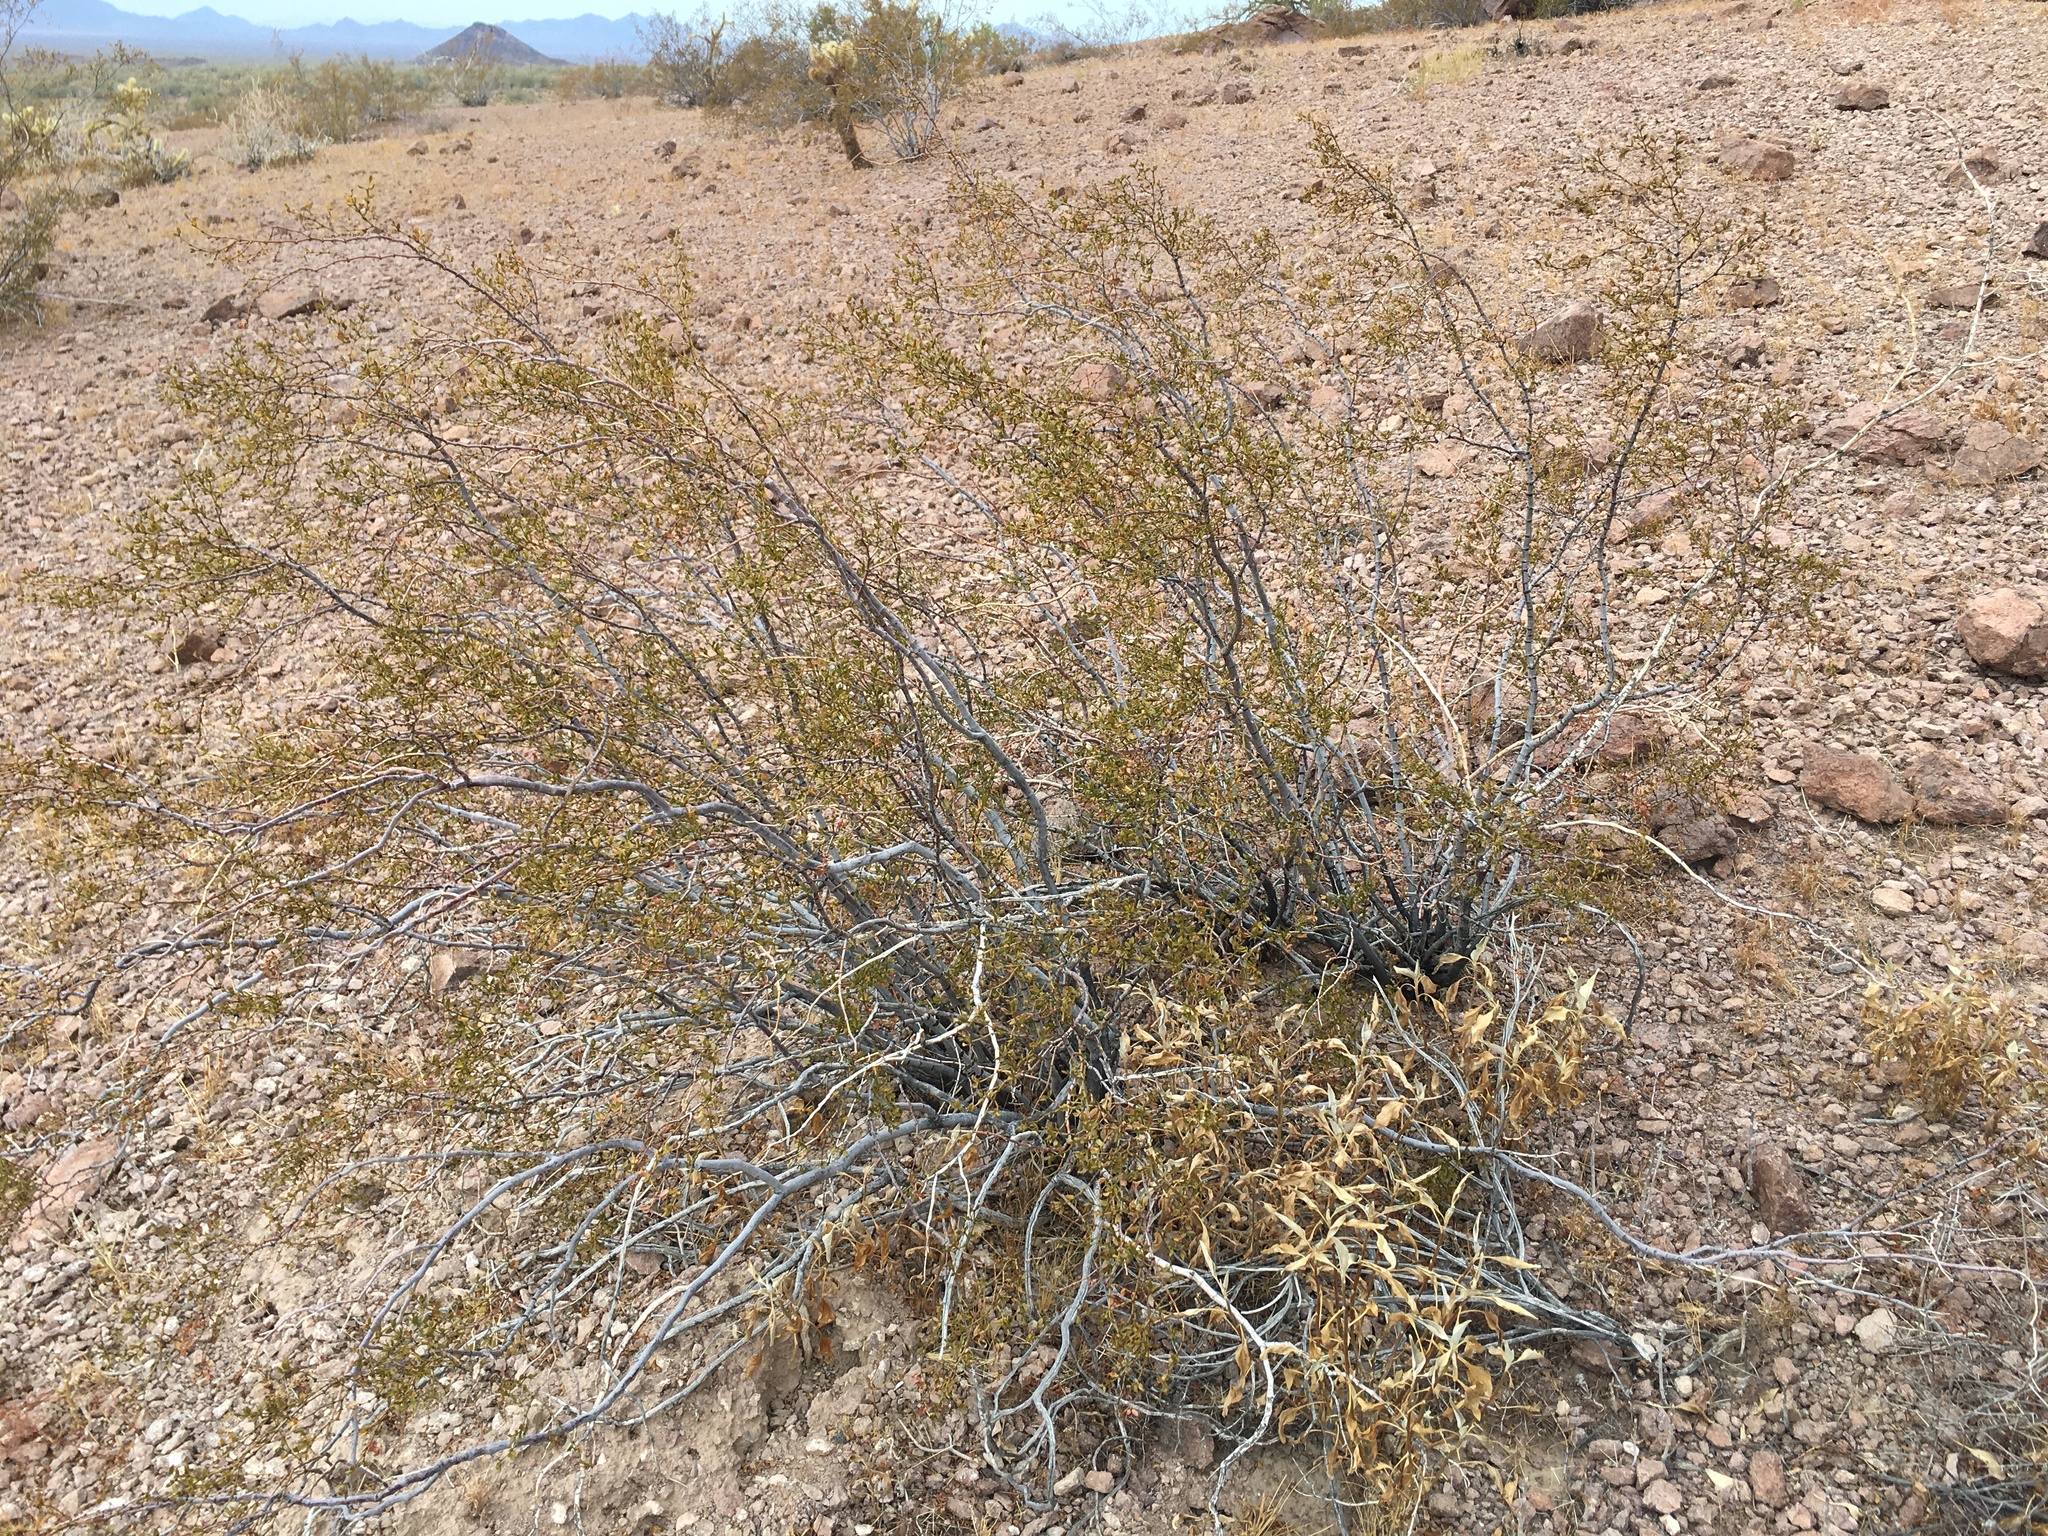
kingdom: Plantae
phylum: Tracheophyta
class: Magnoliopsida
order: Zygophyllales
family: Zygophyllaceae
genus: Larrea
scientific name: Larrea tridentata
